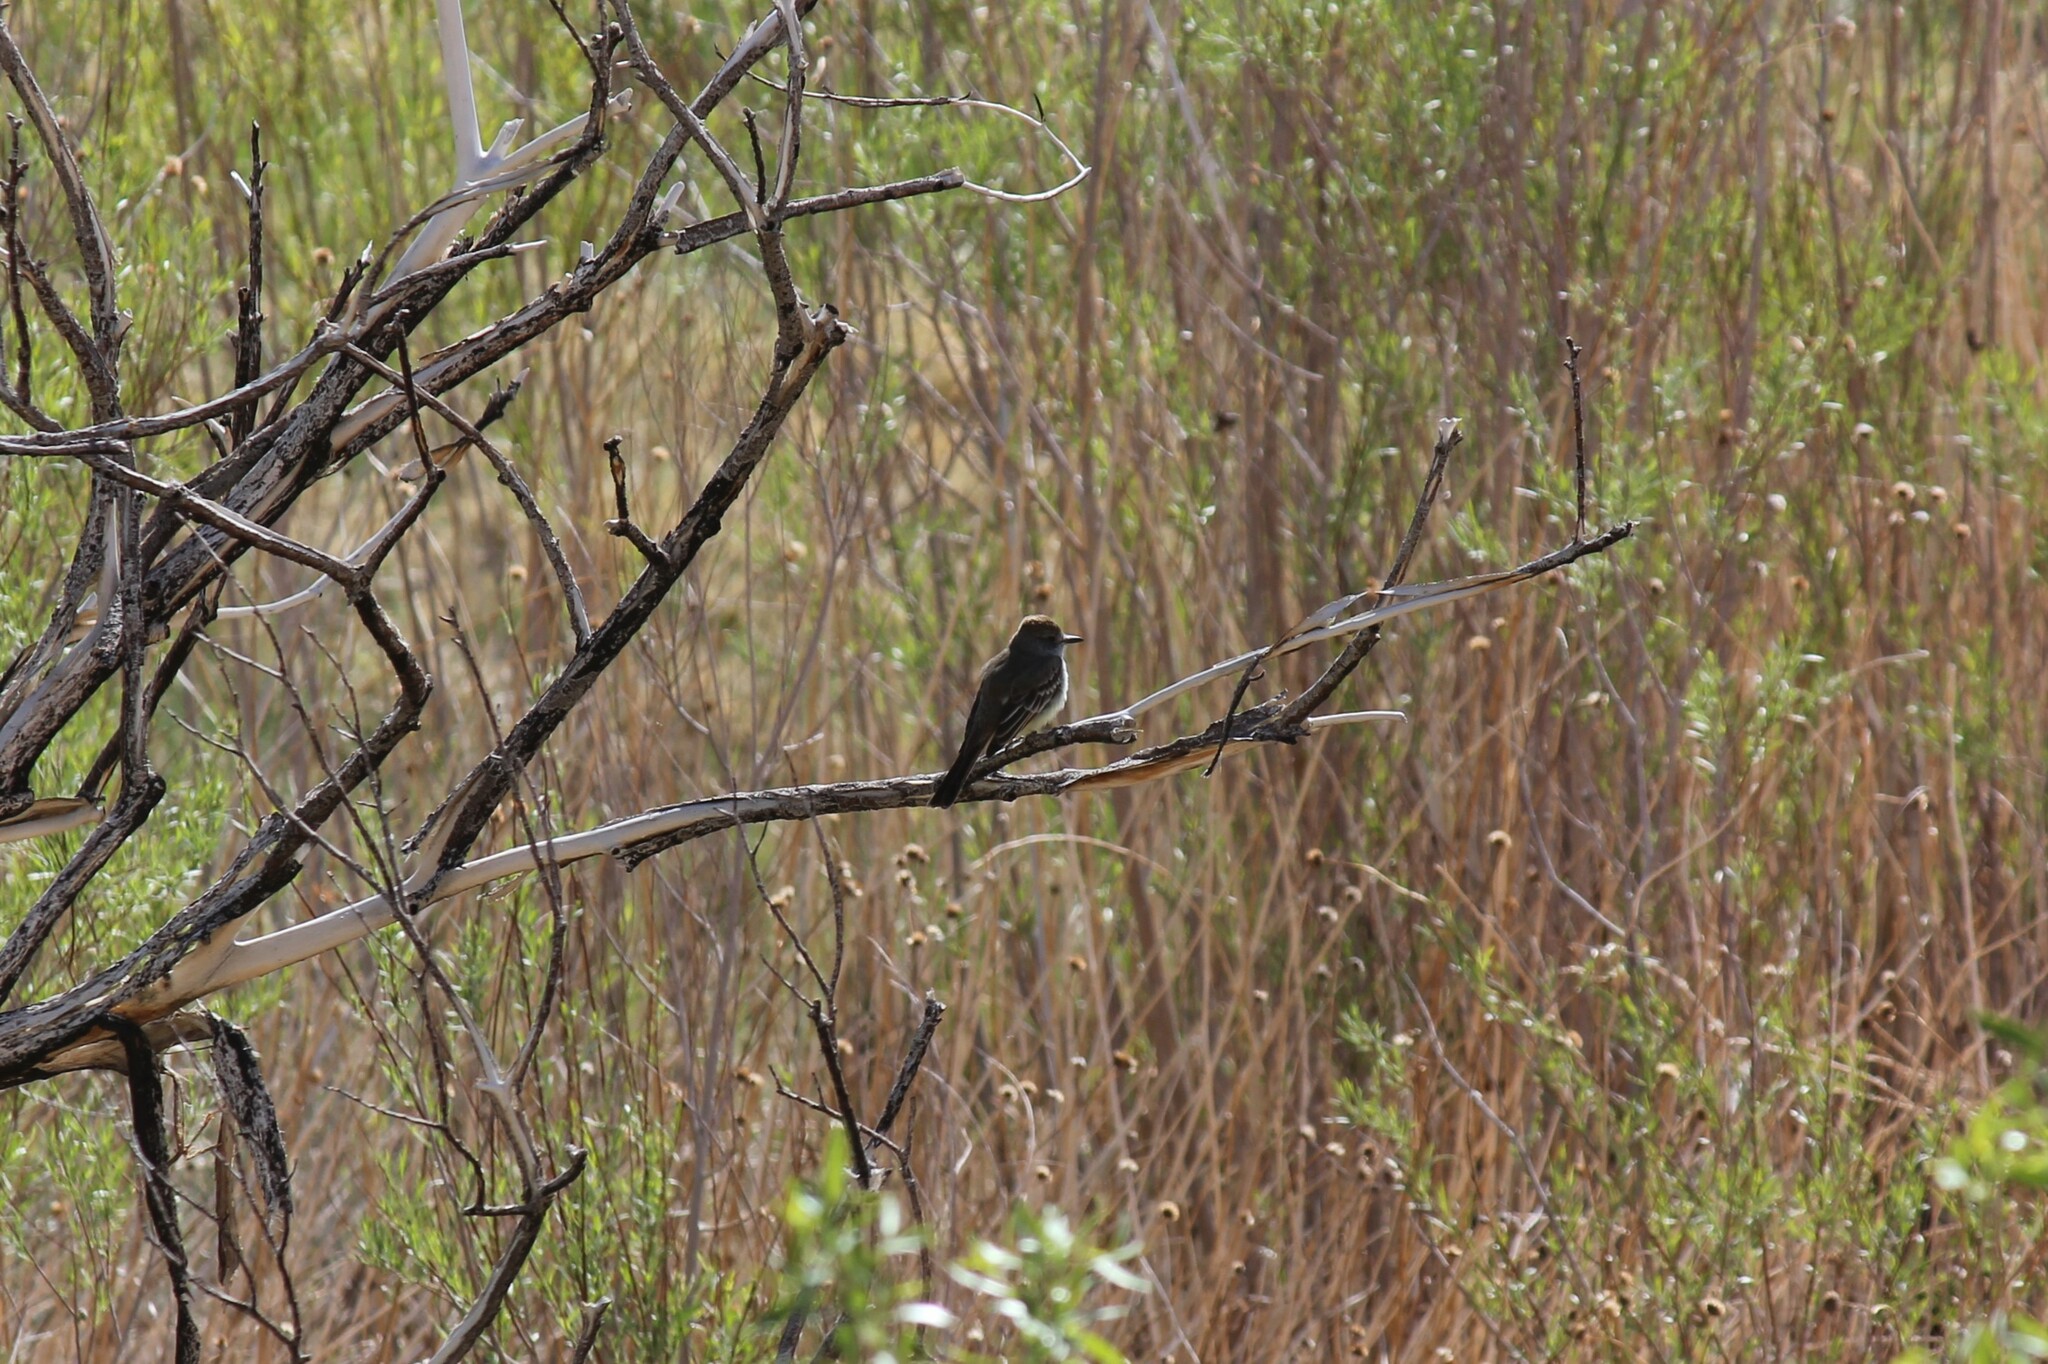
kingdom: Animalia
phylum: Chordata
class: Aves
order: Passeriformes
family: Tyrannidae
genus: Myiarchus
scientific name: Myiarchus cinerascens
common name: Ash-throated flycatcher
